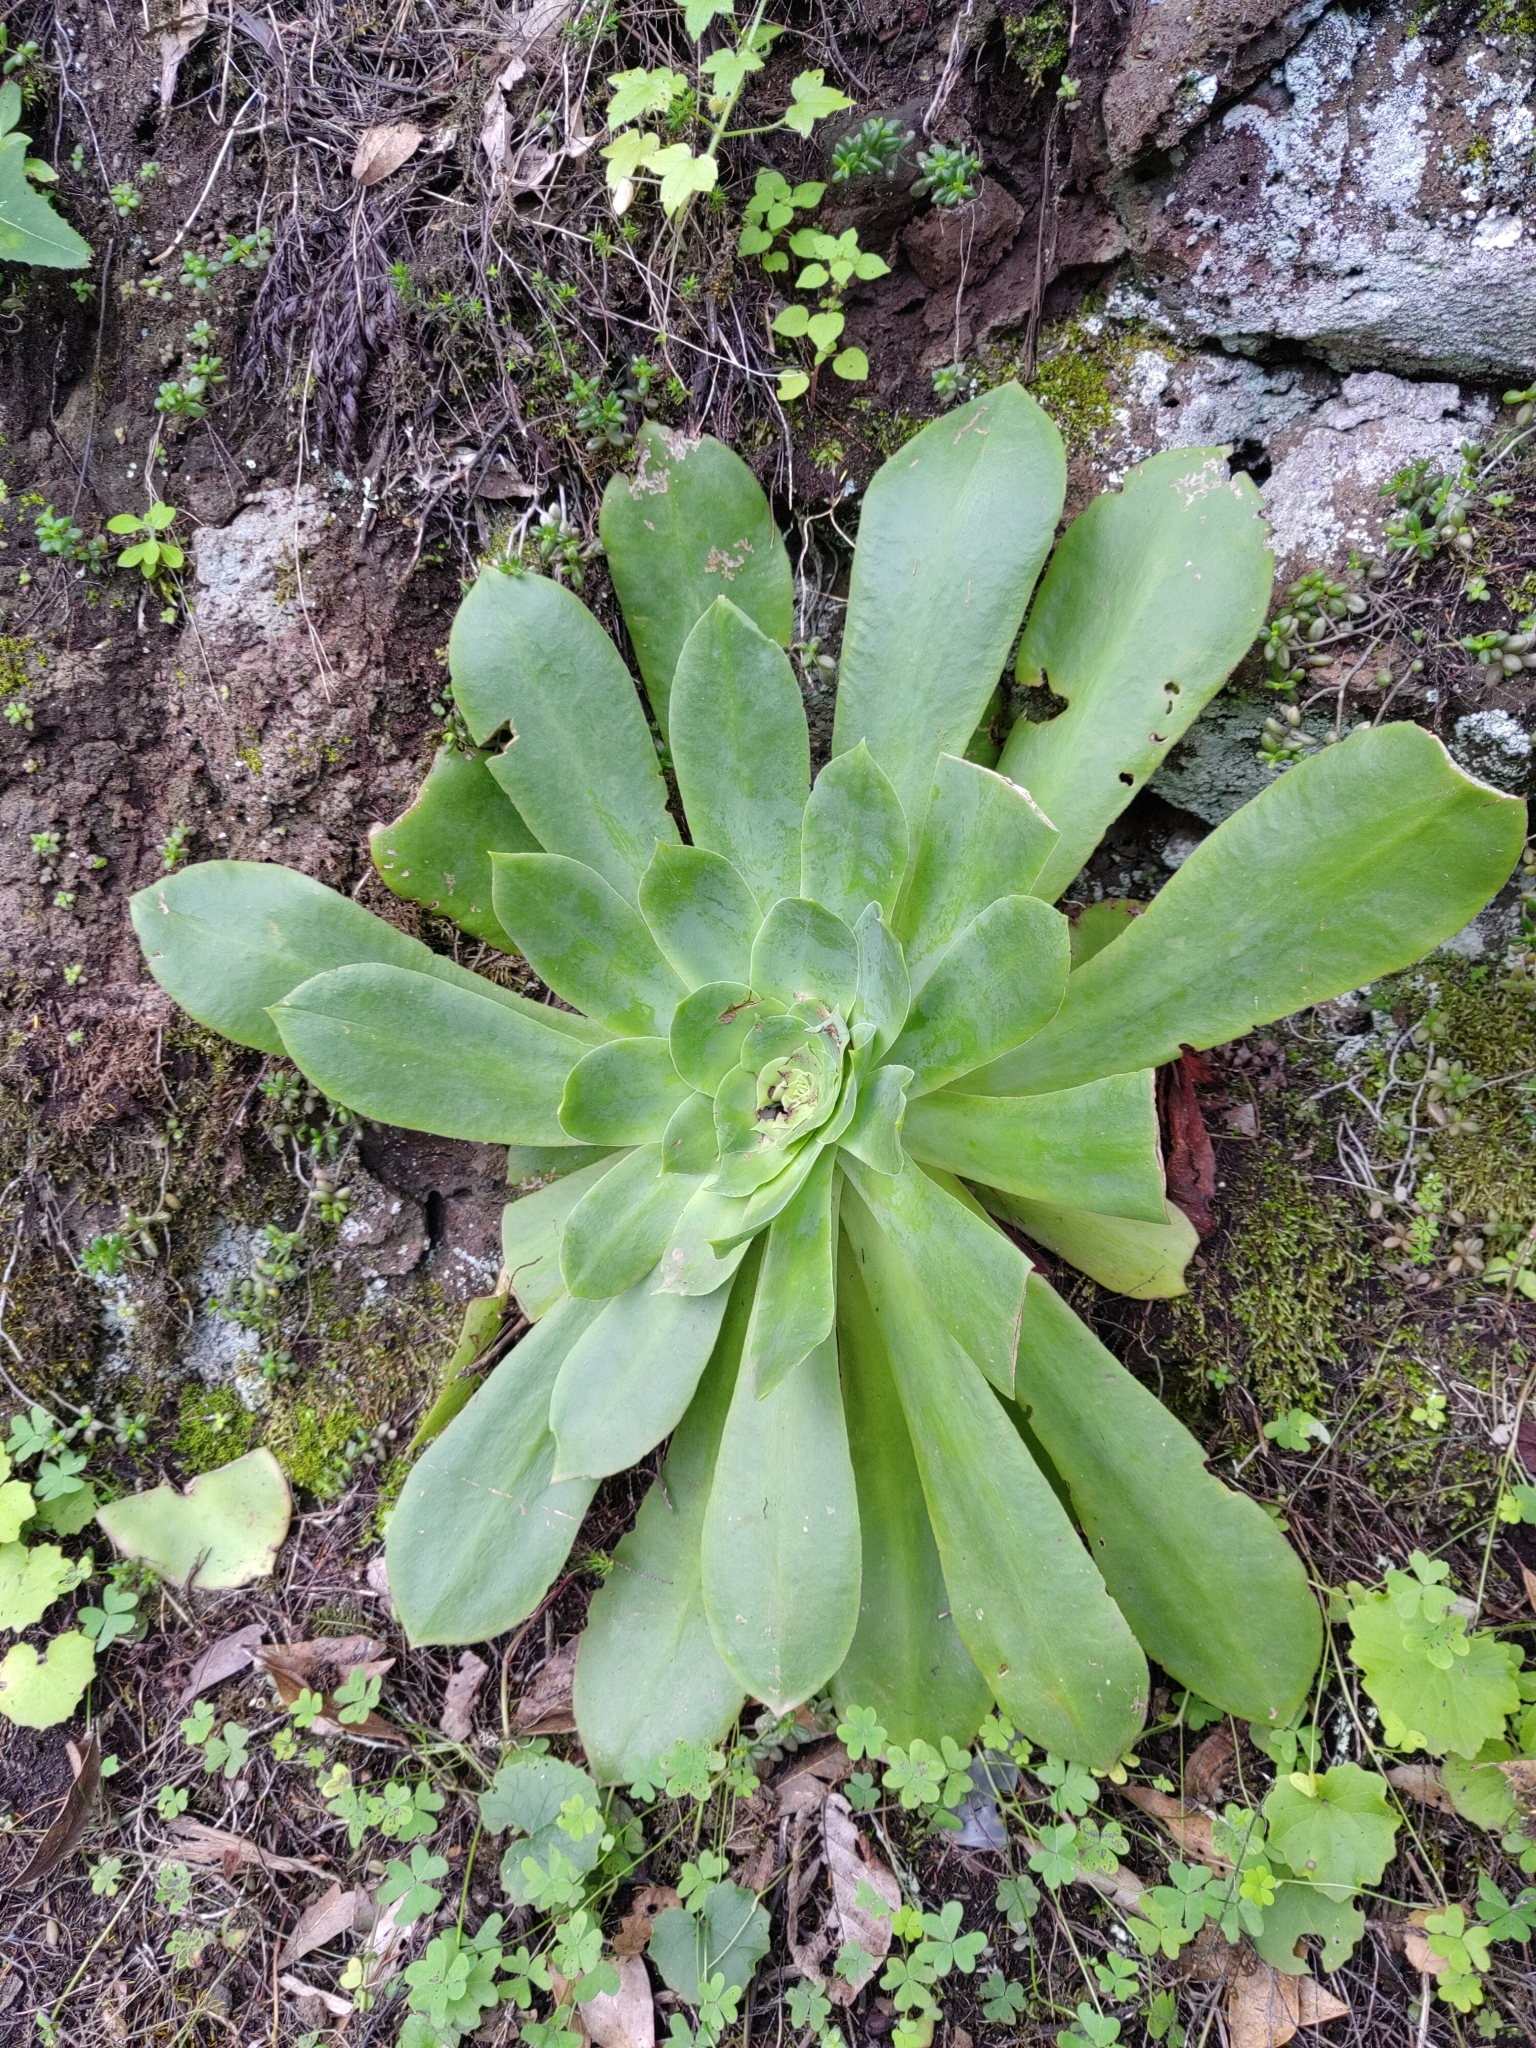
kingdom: Plantae
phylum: Tracheophyta
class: Magnoliopsida
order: Saxifragales
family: Crassulaceae
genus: Aeonium
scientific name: Aeonium cuneatum
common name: Aeonium
